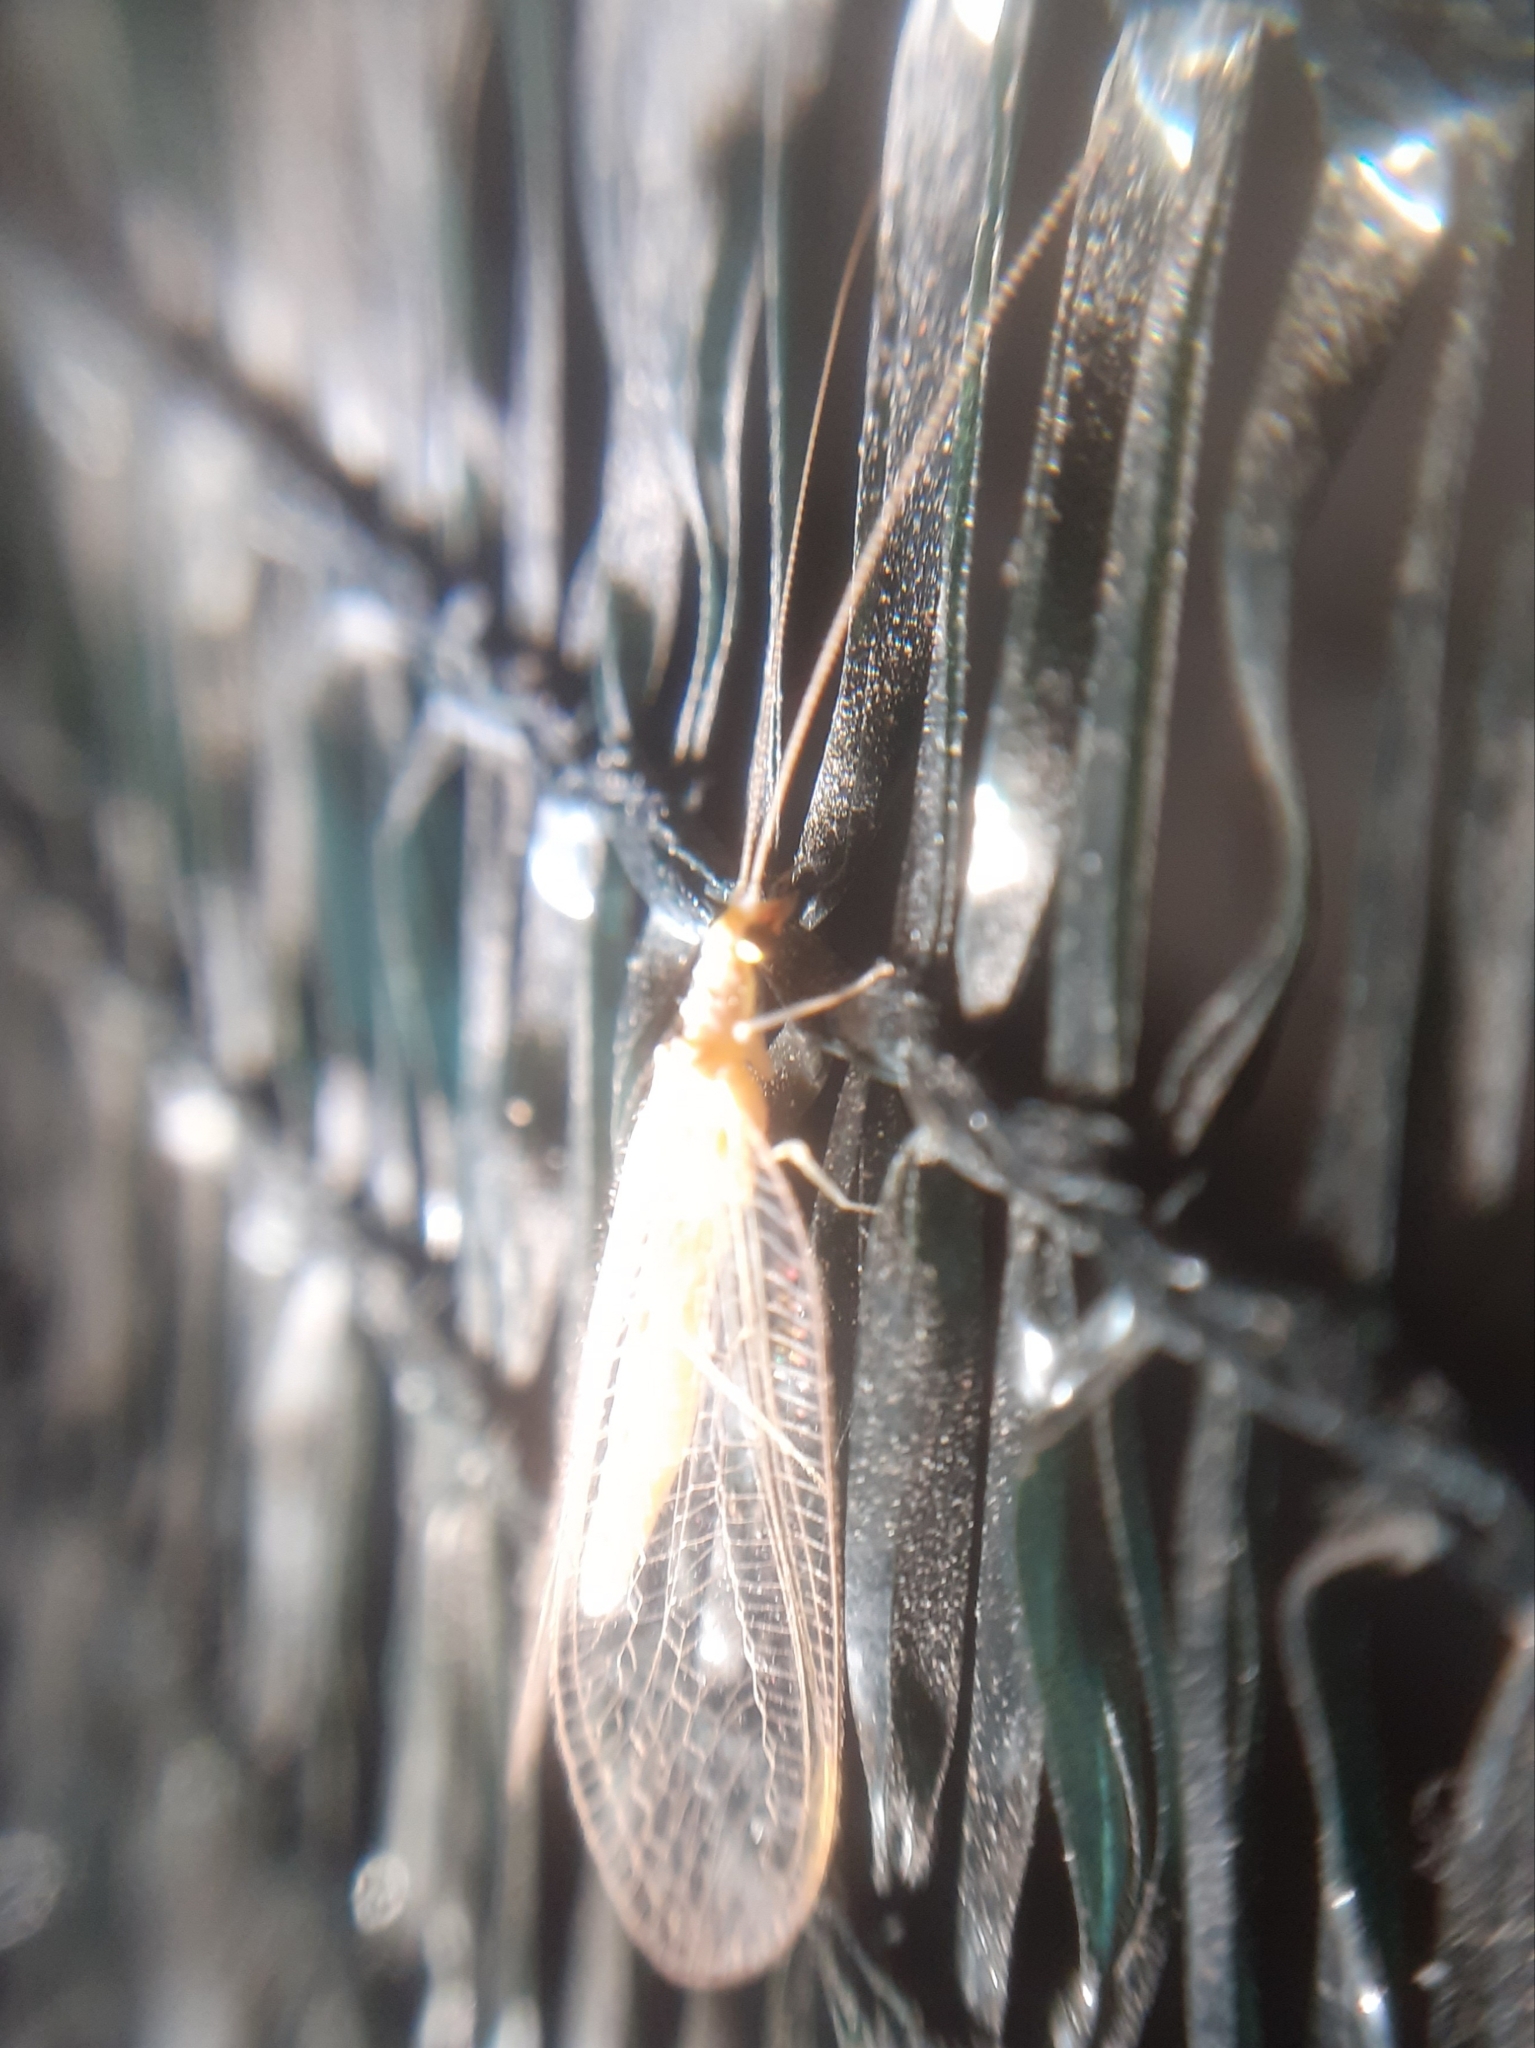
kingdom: Animalia
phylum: Arthropoda
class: Insecta
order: Neuroptera
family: Chrysopidae
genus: Chrysoperla
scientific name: Chrysoperla
